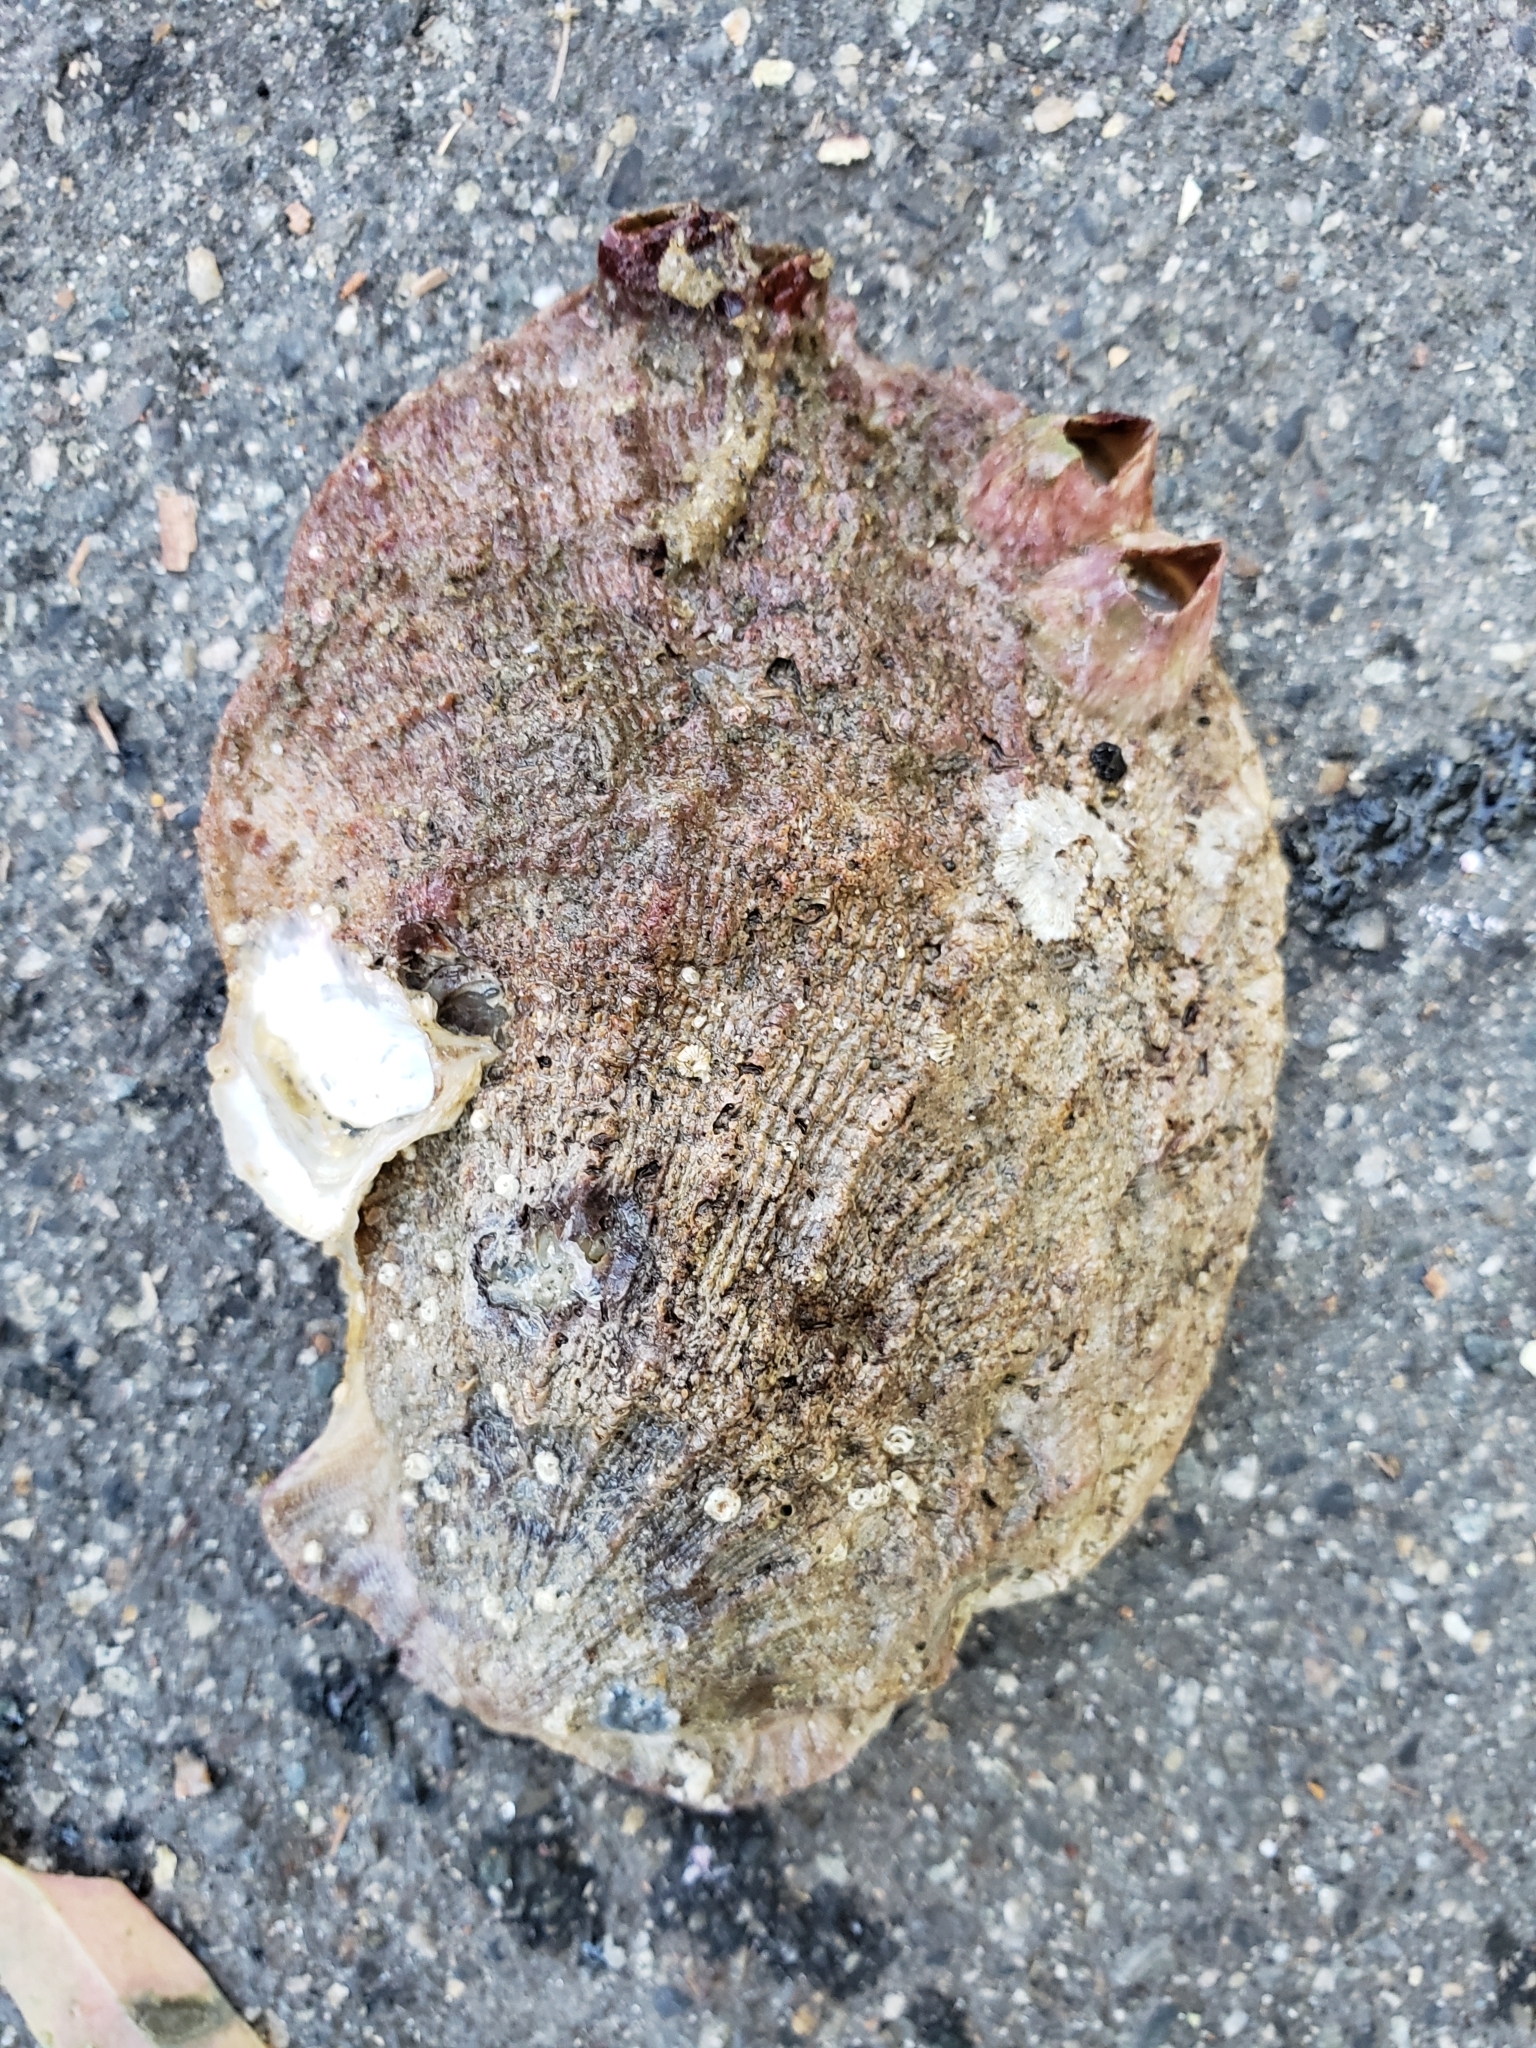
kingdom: Animalia
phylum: Mollusca
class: Bivalvia
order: Pectinida
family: Pectinidae
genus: Crassadoma
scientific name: Crassadoma gigantea
